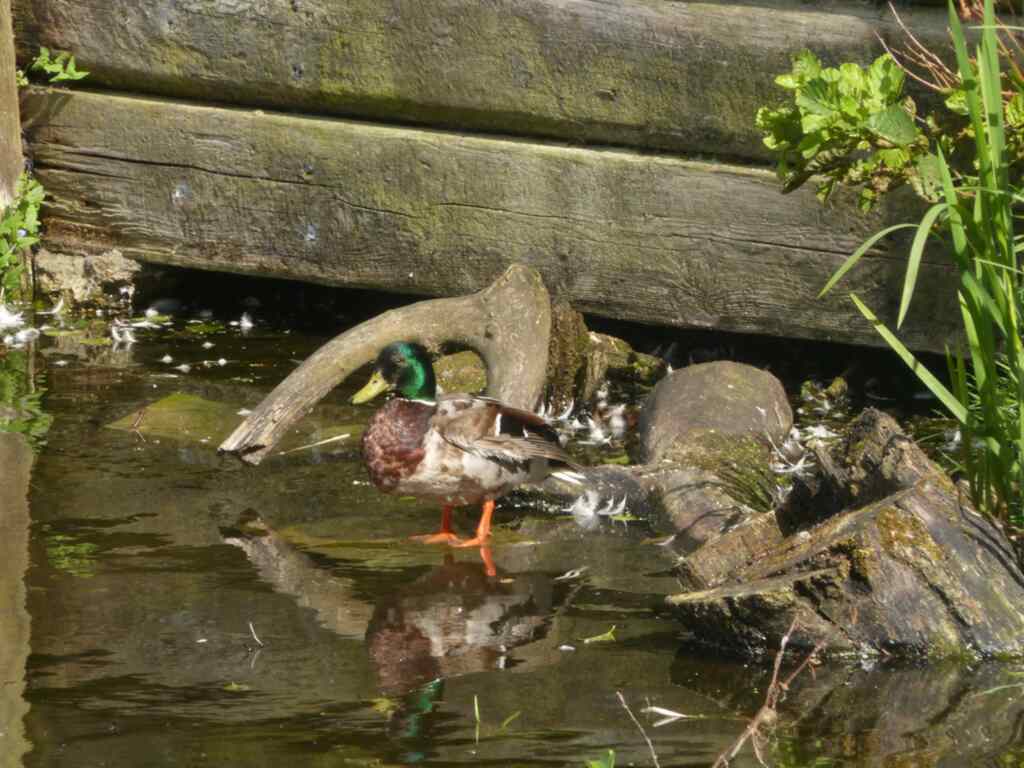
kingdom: Animalia
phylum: Chordata
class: Aves
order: Anseriformes
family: Anatidae
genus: Anas
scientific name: Anas platyrhynchos
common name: Mallard
